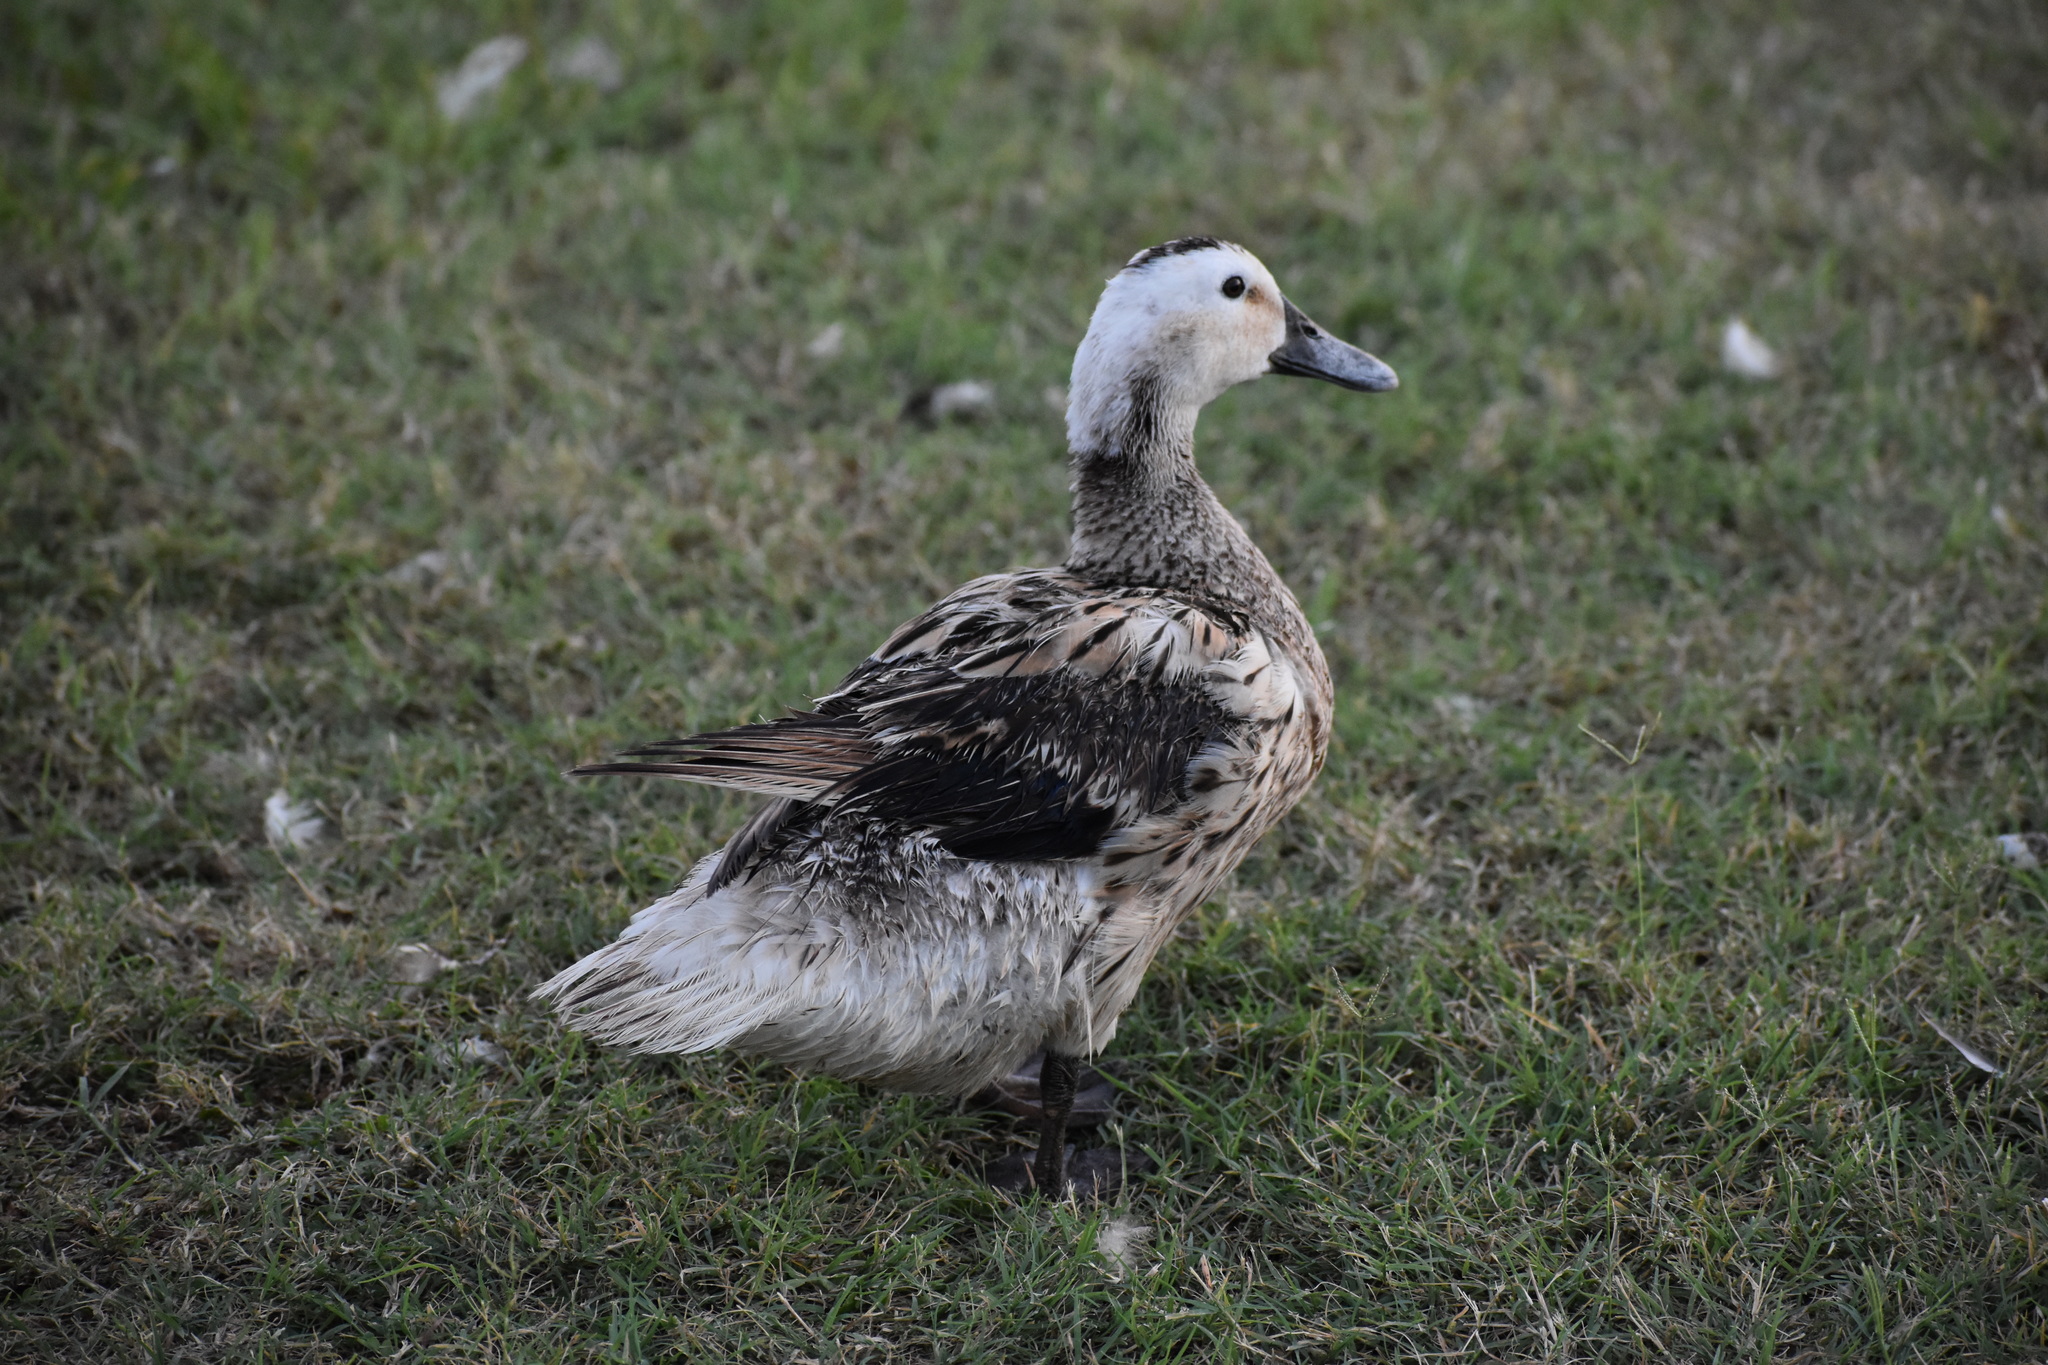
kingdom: Animalia
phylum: Chordata
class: Aves
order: Anseriformes
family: Anatidae
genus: Anas
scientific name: Anas platyrhynchos
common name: Mallard
